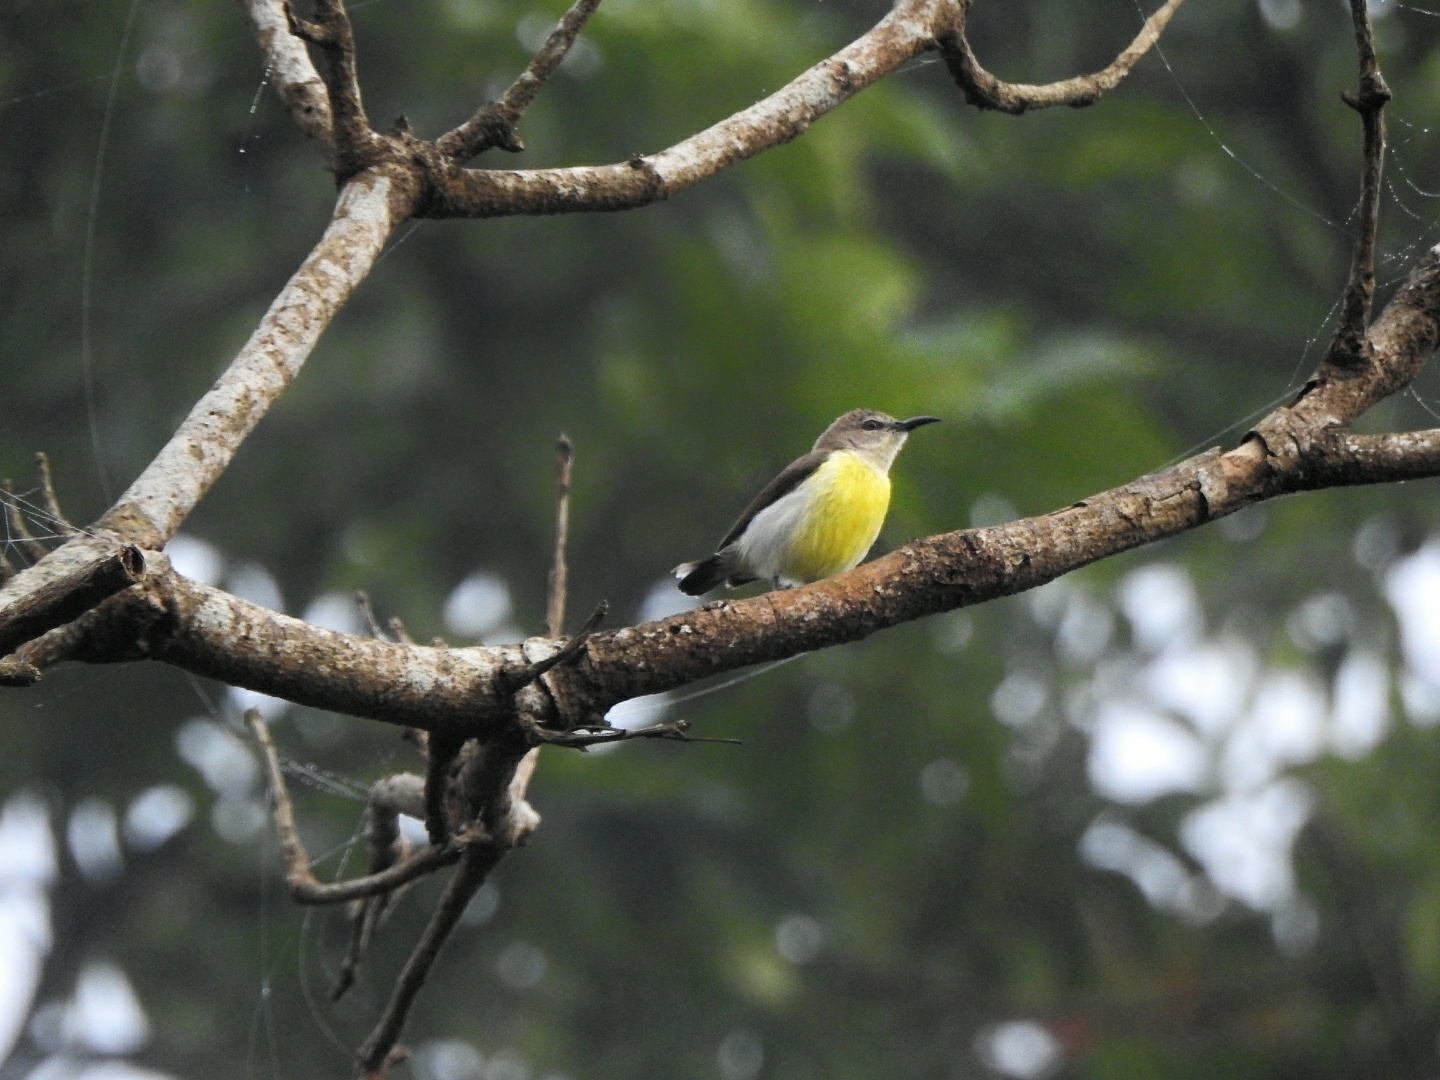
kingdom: Animalia
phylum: Chordata
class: Aves
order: Passeriformes
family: Nectariniidae
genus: Leptocoma
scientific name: Leptocoma zeylonica
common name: Purple-rumped sunbird
